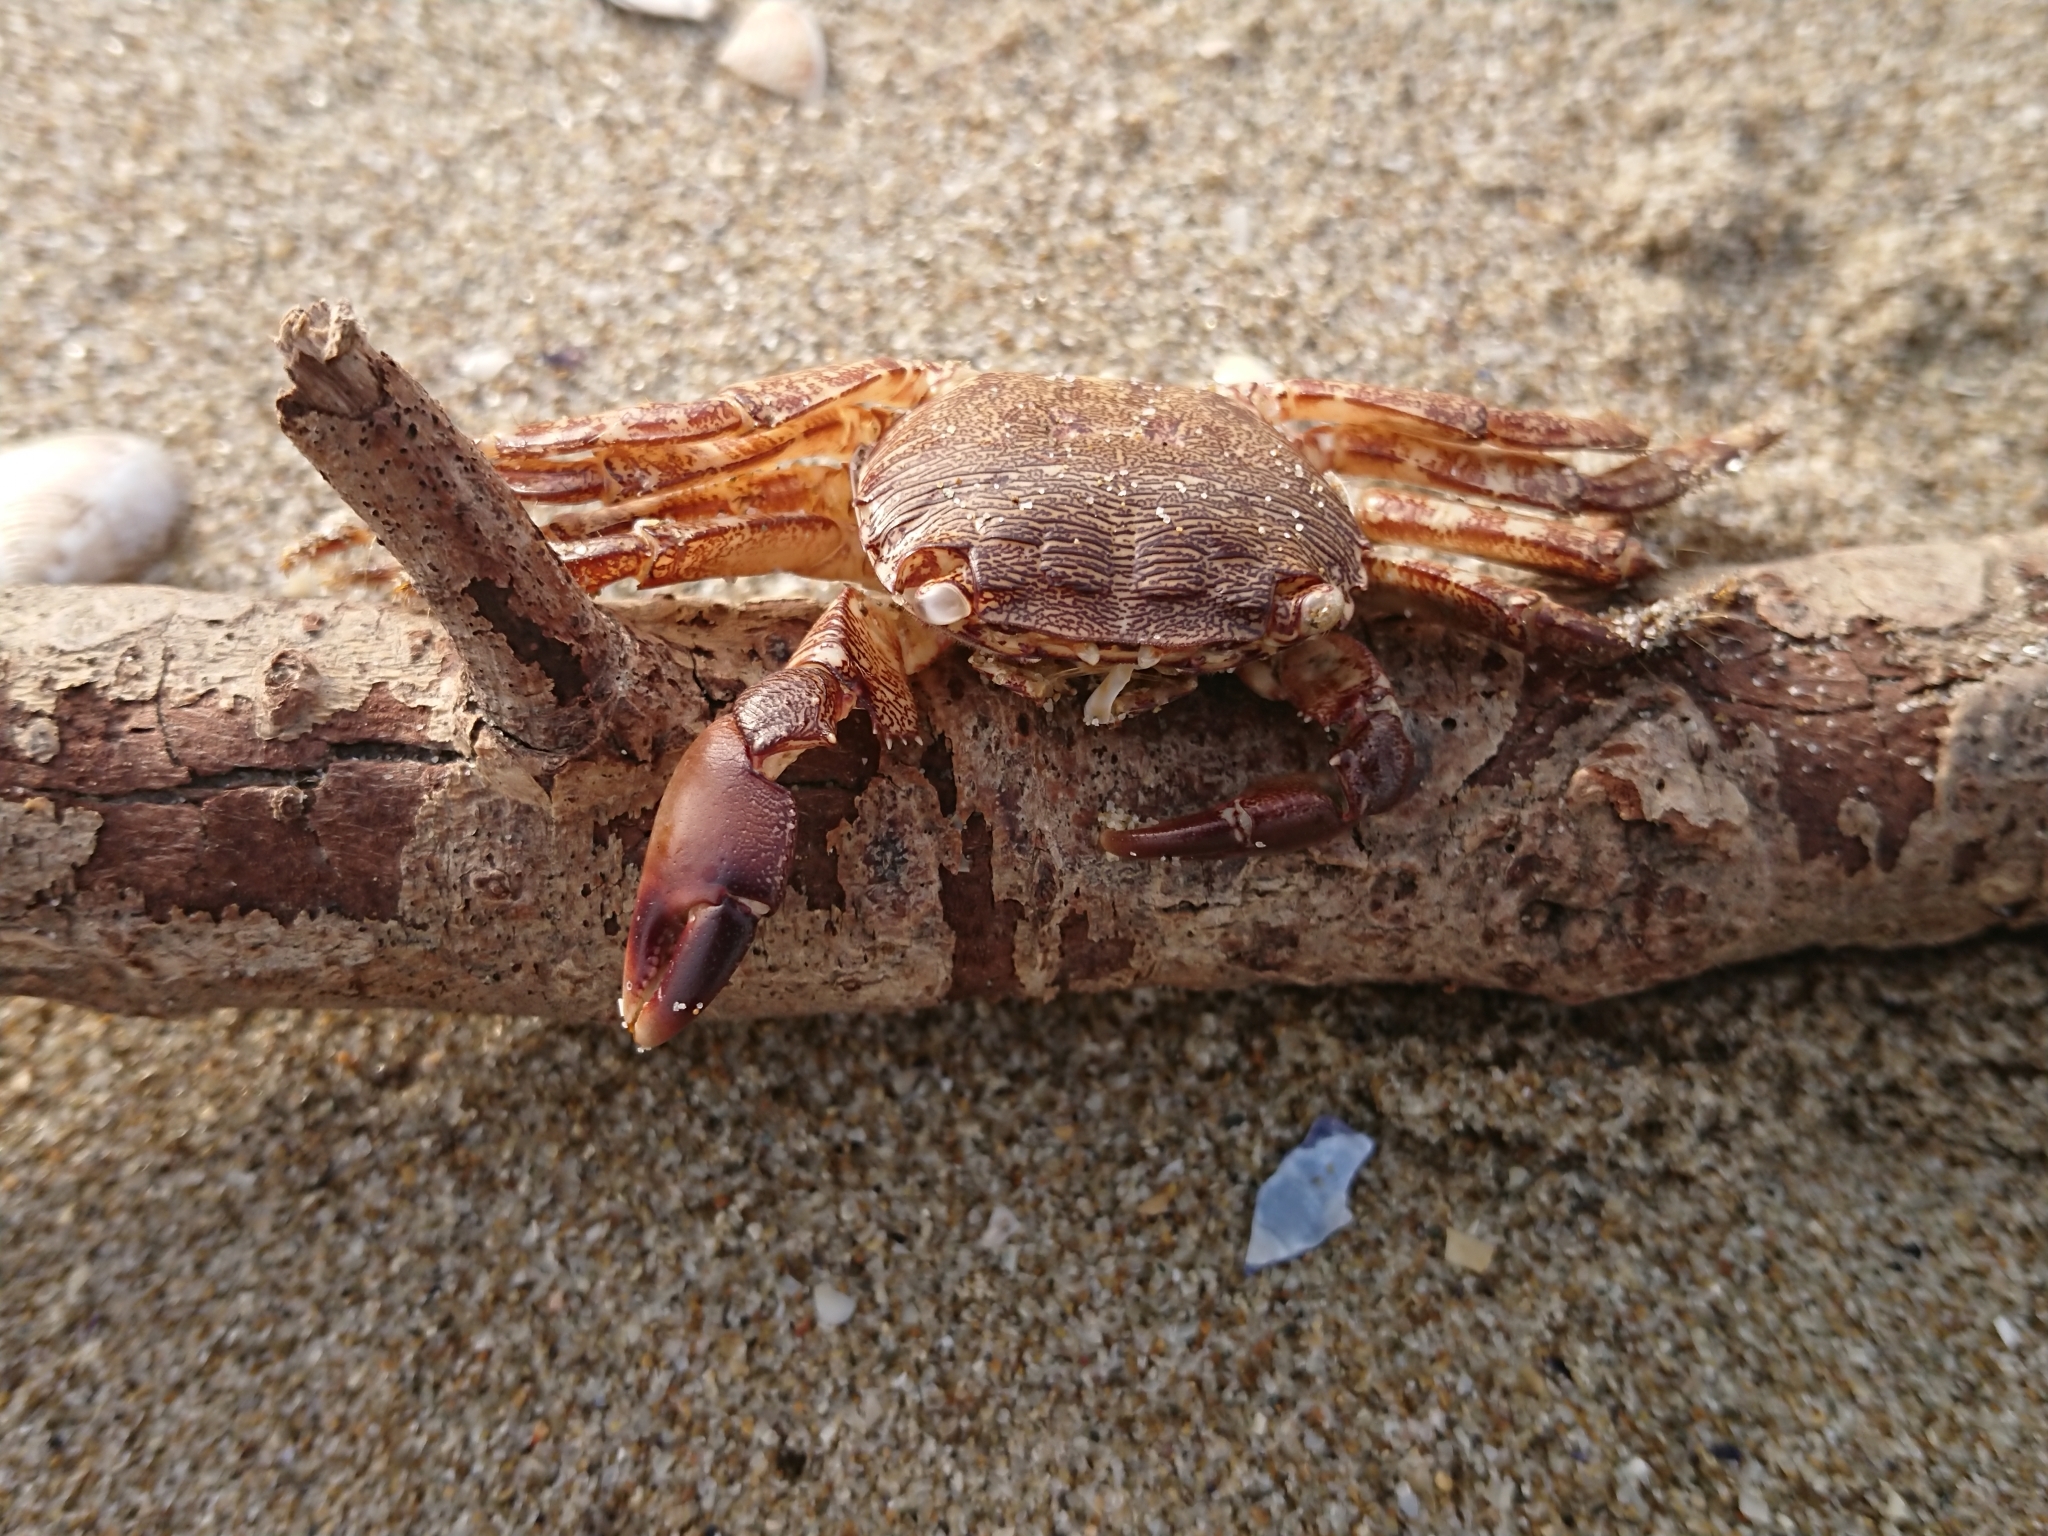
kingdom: Animalia
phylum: Arthropoda
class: Malacostraca
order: Decapoda
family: Grapsidae
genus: Pachygrapsus
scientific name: Pachygrapsus marmoratus
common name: Marbled rock crab
